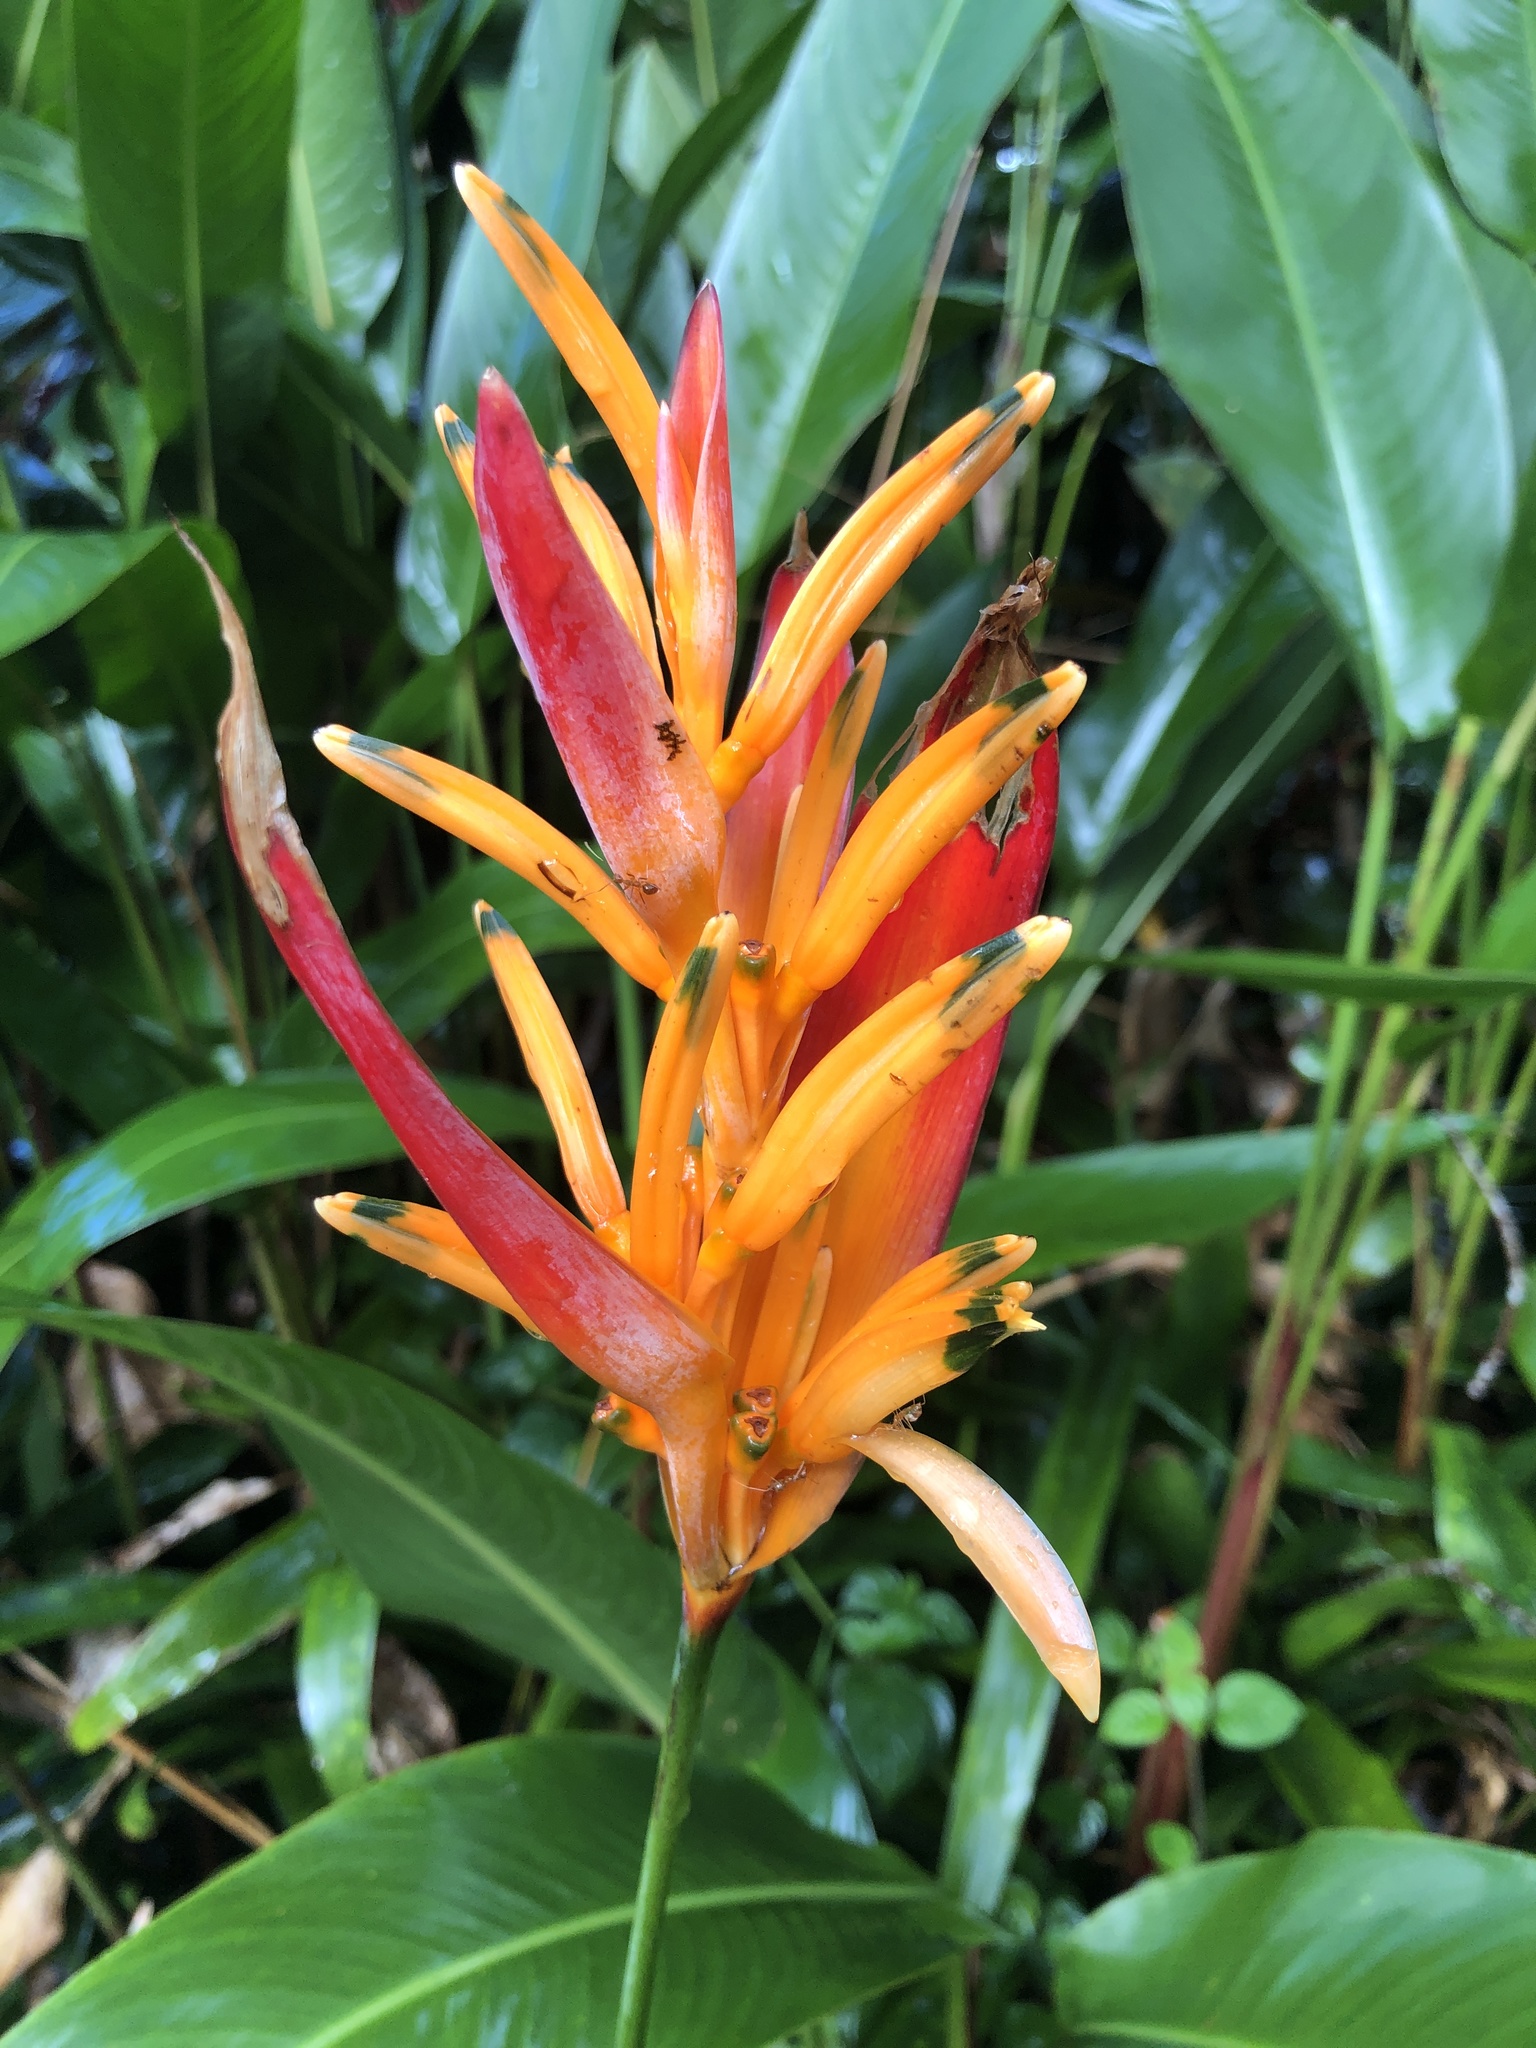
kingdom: Plantae
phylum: Tracheophyta
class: Liliopsida
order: Zingiberales
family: Heliconiaceae
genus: Heliconia
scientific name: Heliconia psittacorum
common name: Parrot's-flower
